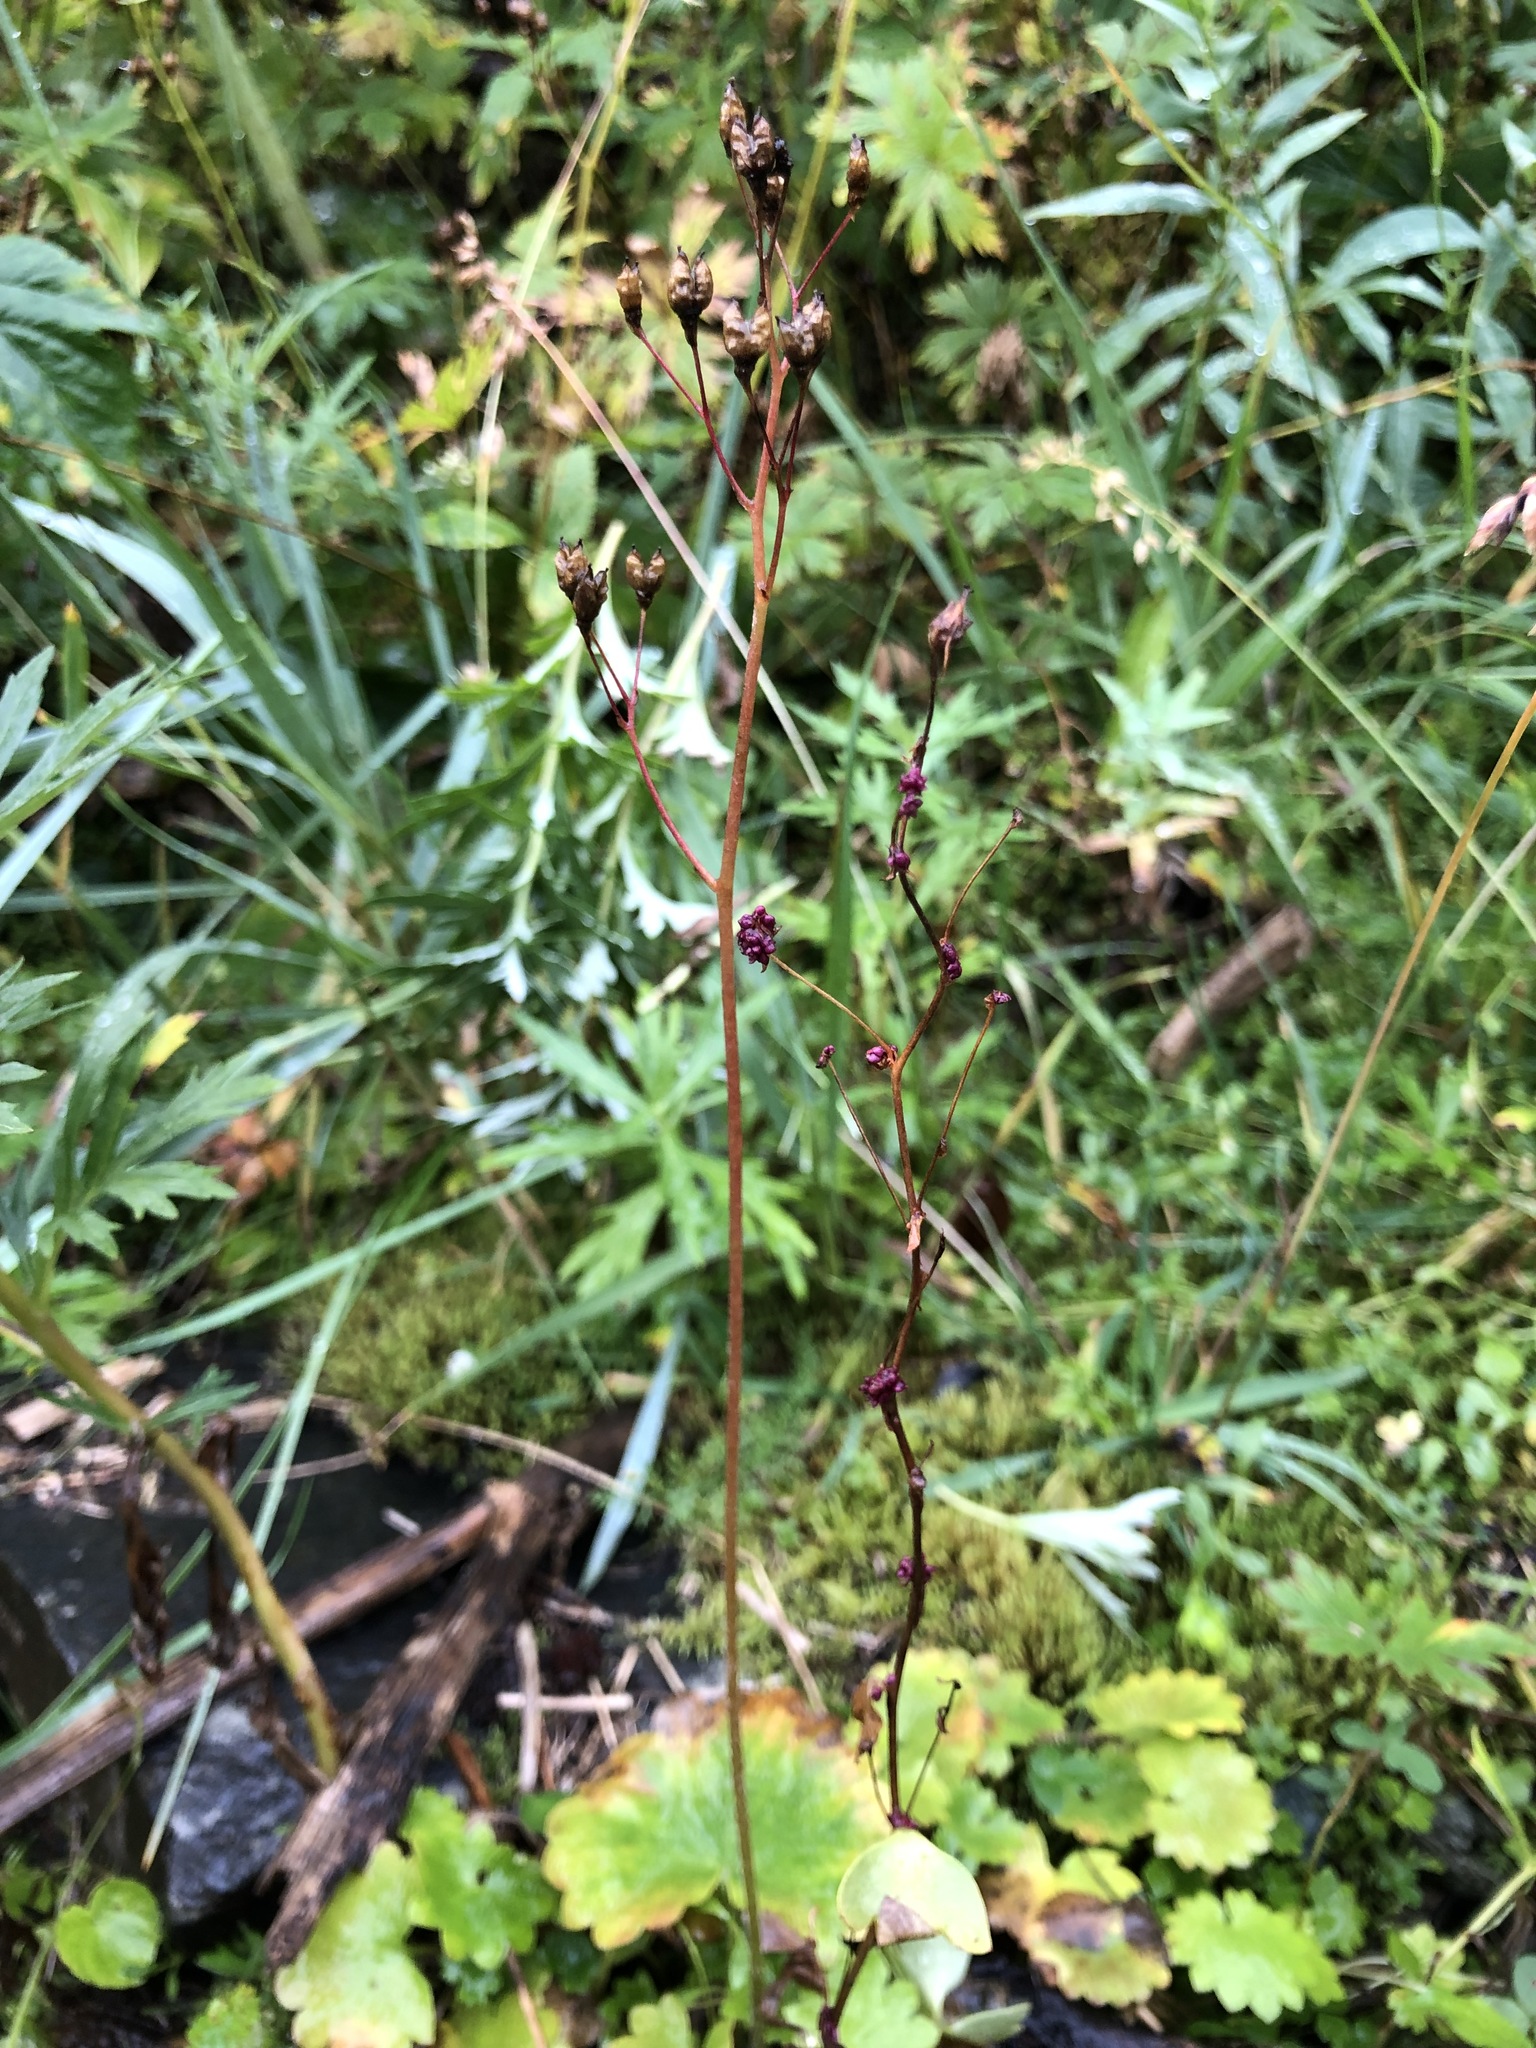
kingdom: Plantae
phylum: Tracheophyta
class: Magnoliopsida
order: Saxifragales
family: Saxifragaceae
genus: Micranthes
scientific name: Micranthes nelsoniana
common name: Nelson's saxifrage
